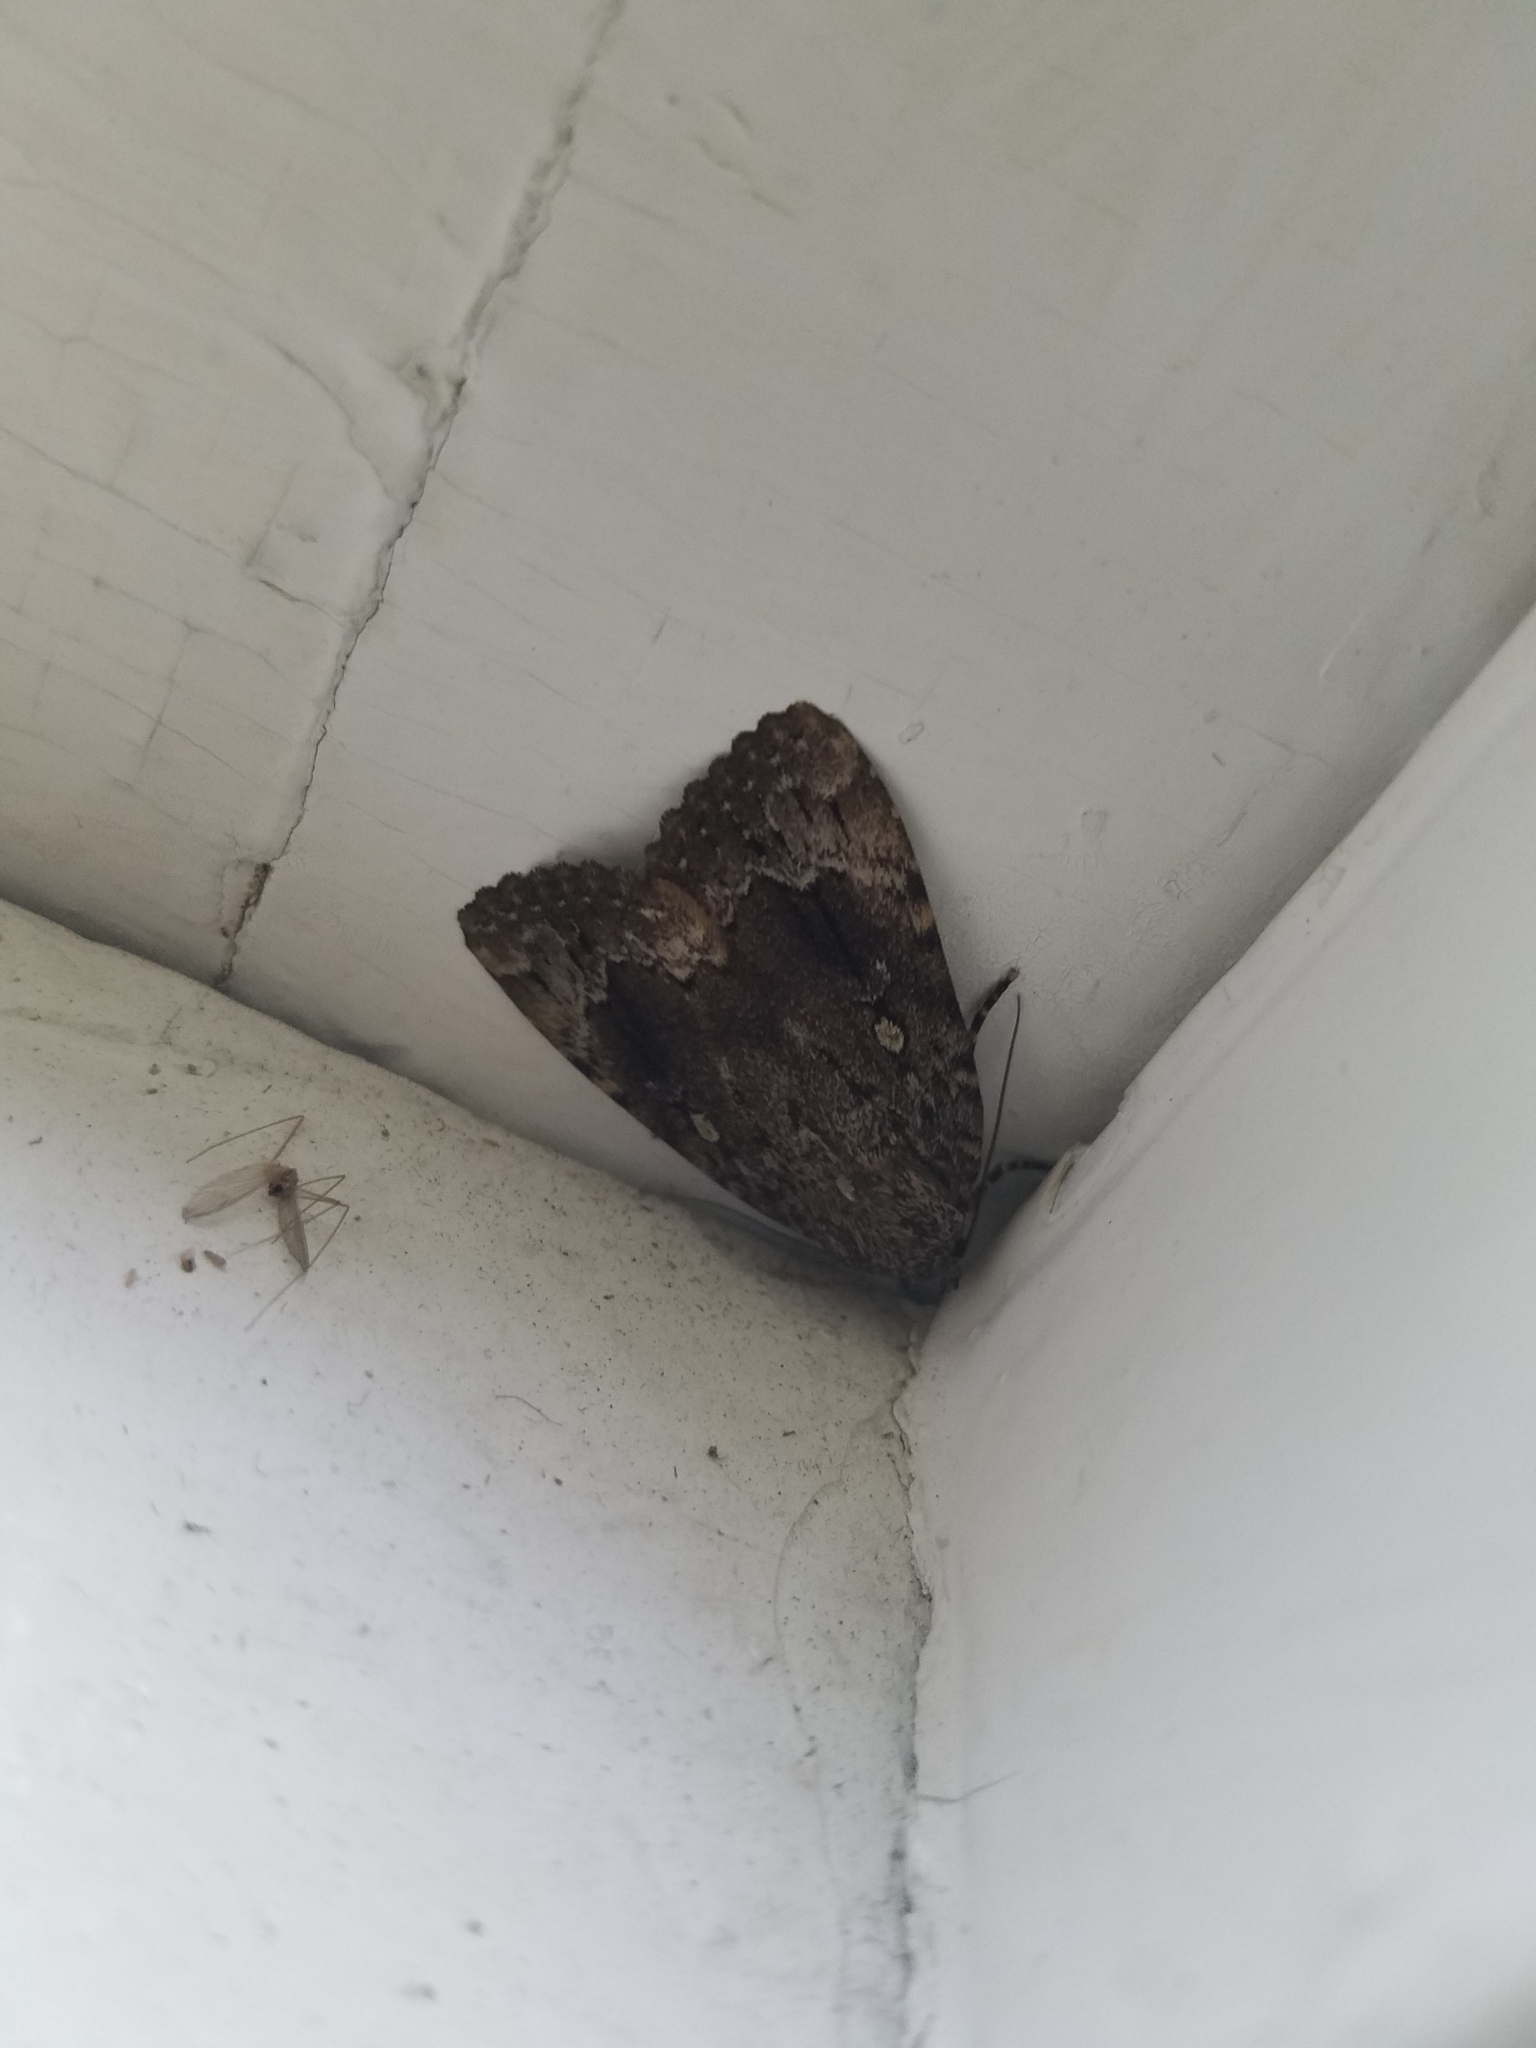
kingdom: Animalia
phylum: Arthropoda
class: Insecta
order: Lepidoptera
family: Noctuidae
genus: Amphipyra
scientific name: Amphipyra pyramidoides
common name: American copper underwing
